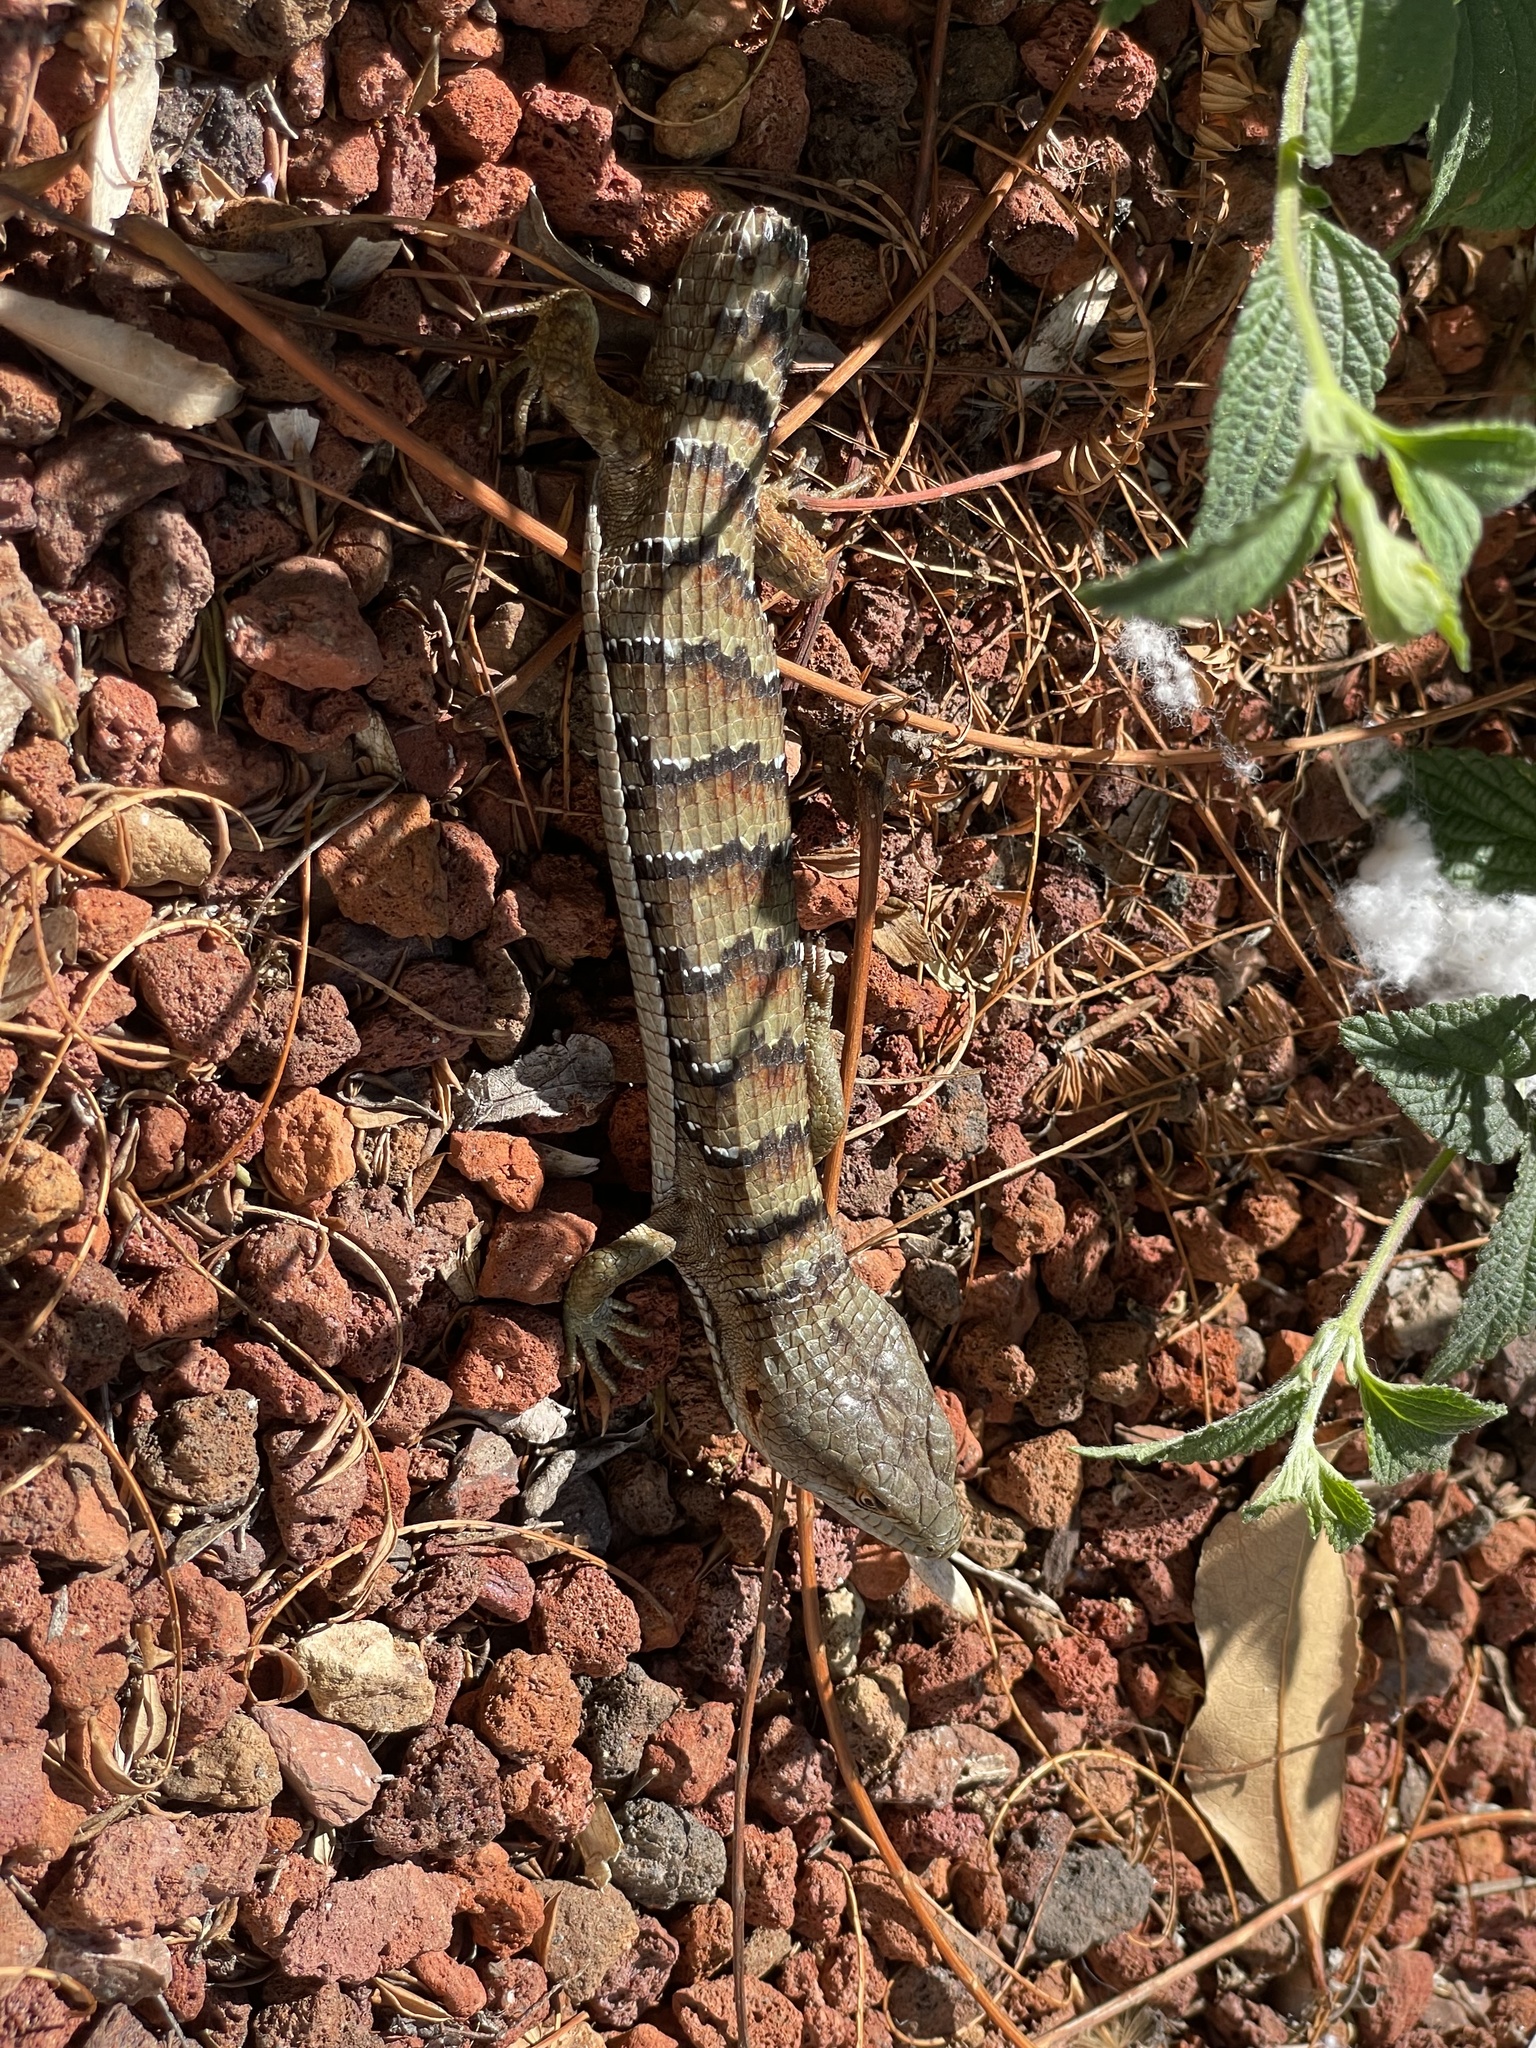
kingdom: Animalia
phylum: Chordata
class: Squamata
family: Anguidae
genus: Elgaria
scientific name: Elgaria multicarinata
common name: Southern alligator lizard
